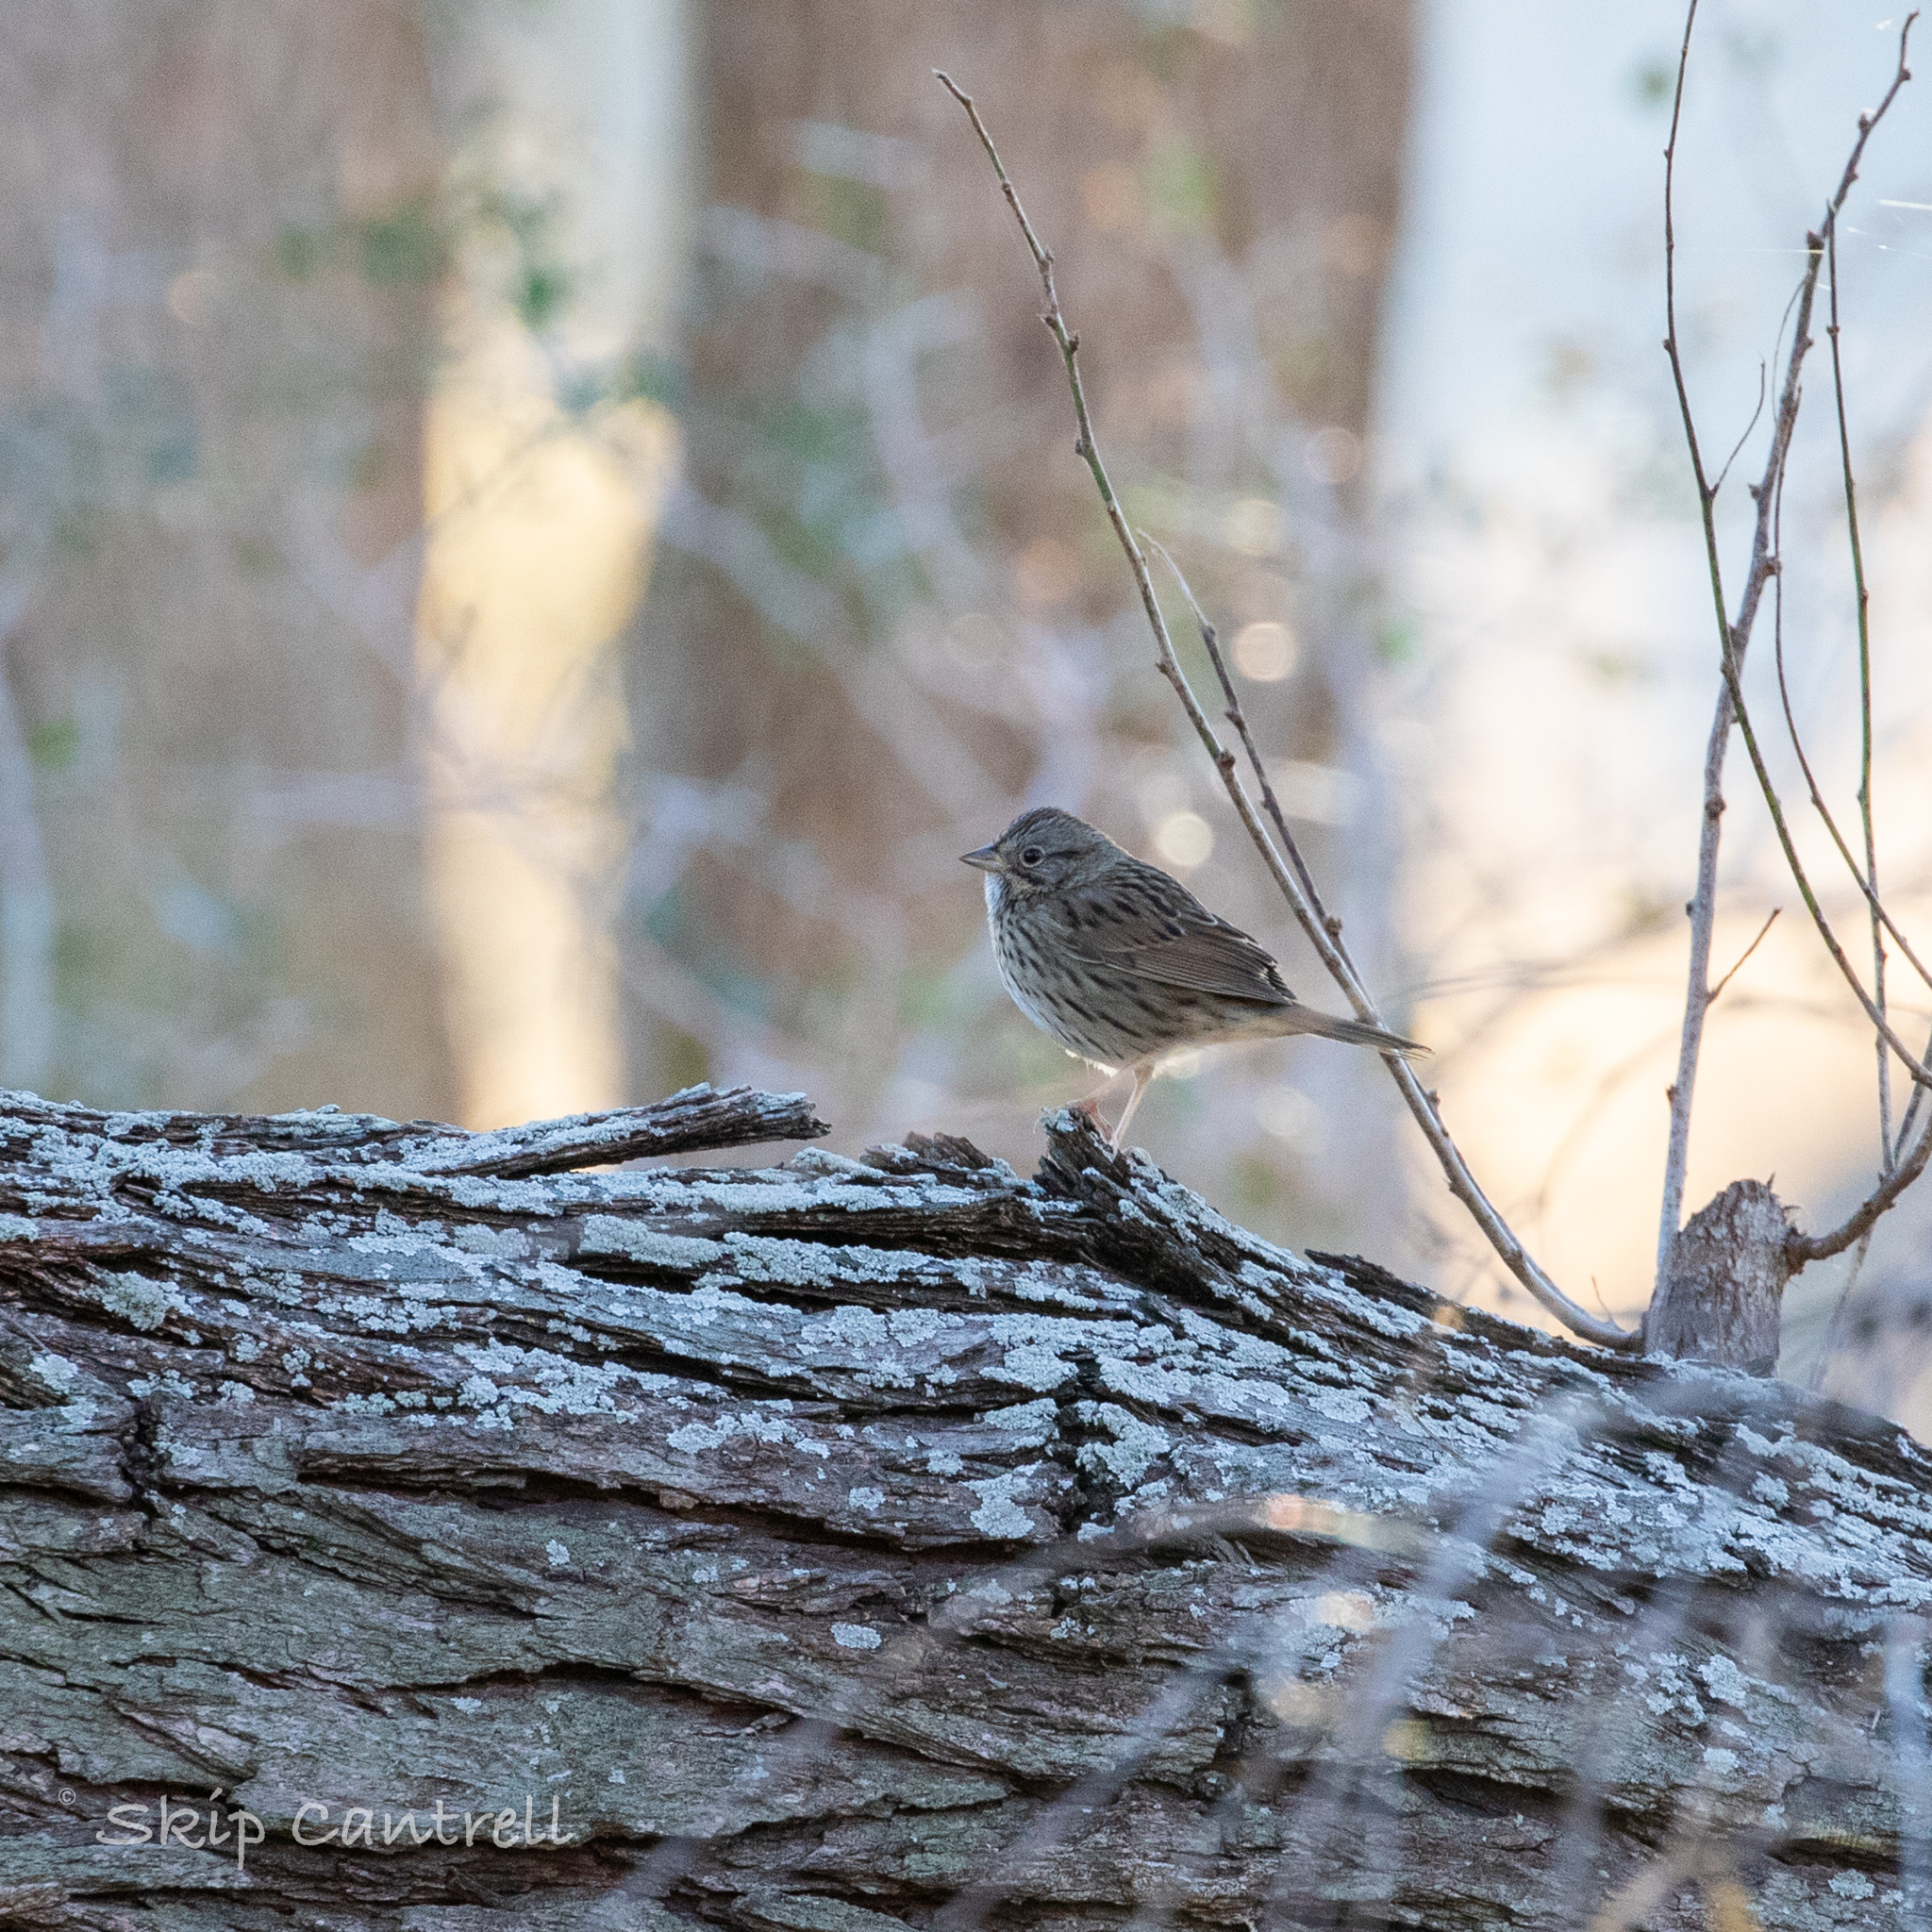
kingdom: Animalia
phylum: Chordata
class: Aves
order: Passeriformes
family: Passerellidae
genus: Melospiza
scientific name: Melospiza lincolnii
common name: Lincoln's sparrow
